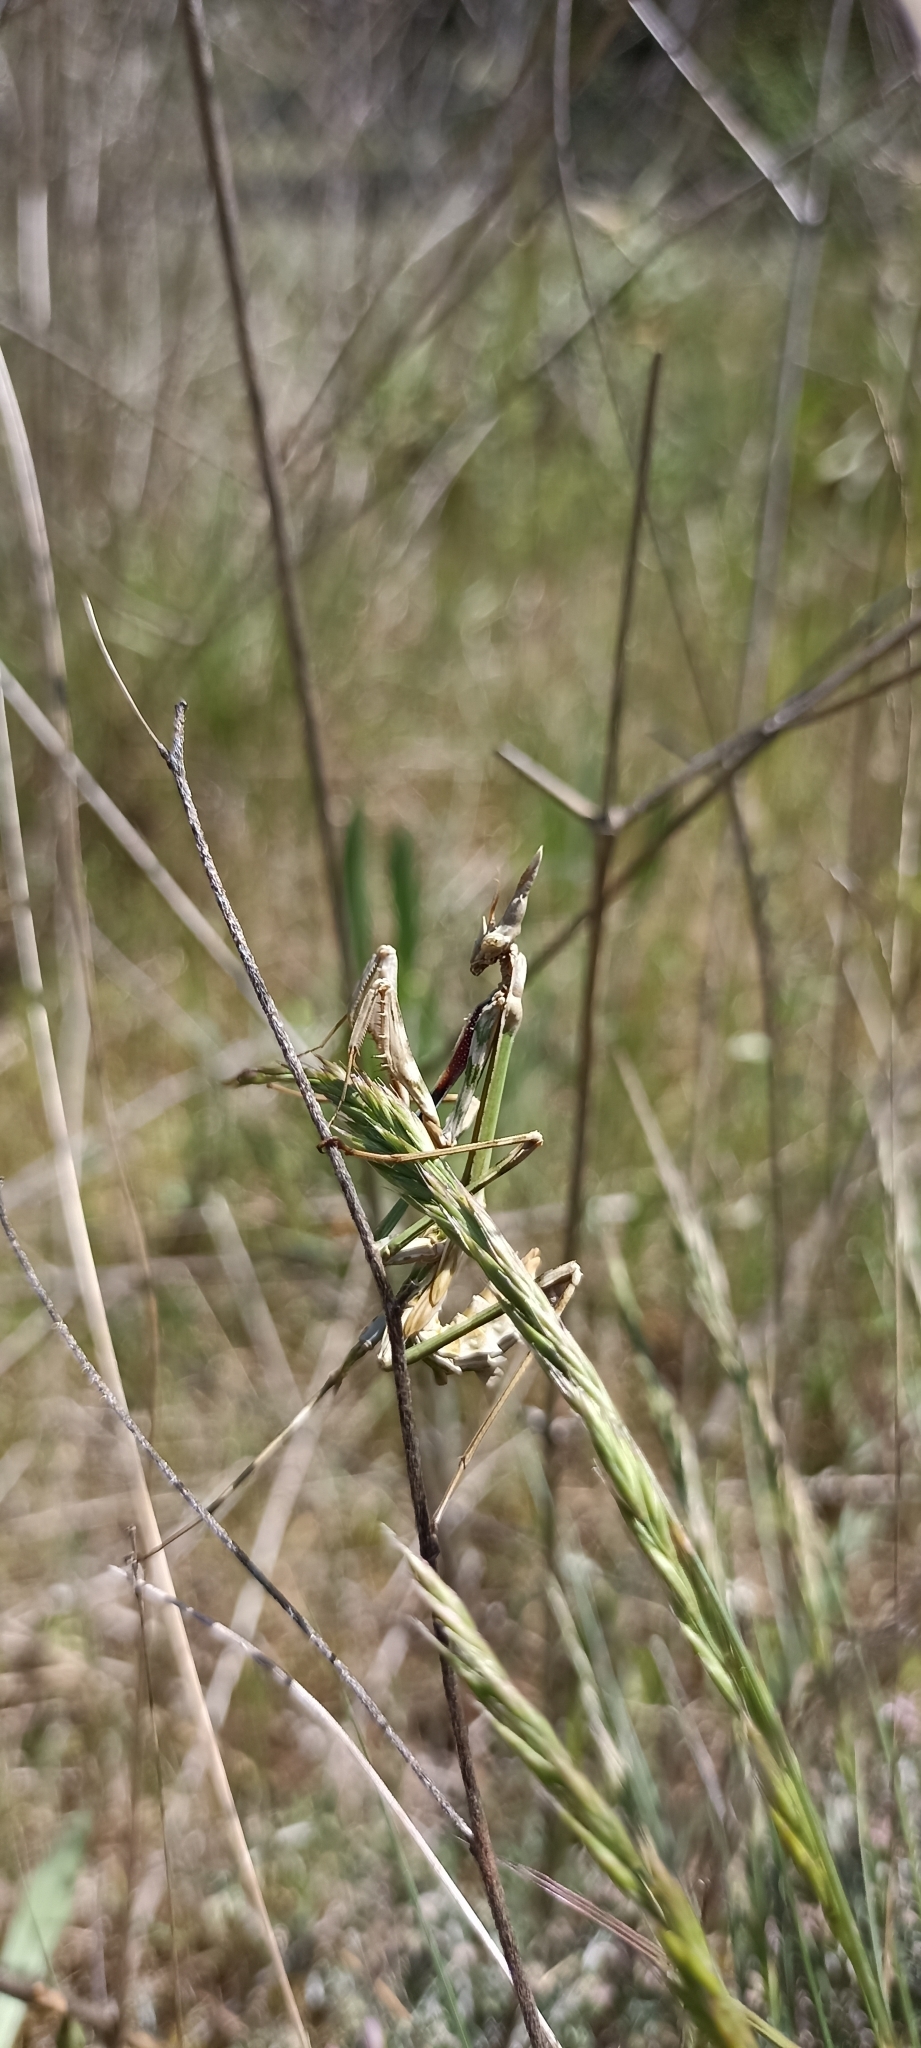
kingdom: Animalia
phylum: Arthropoda
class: Insecta
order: Mantodea
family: Empusidae
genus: Empusa
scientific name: Empusa pennata
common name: Conehead mantis
